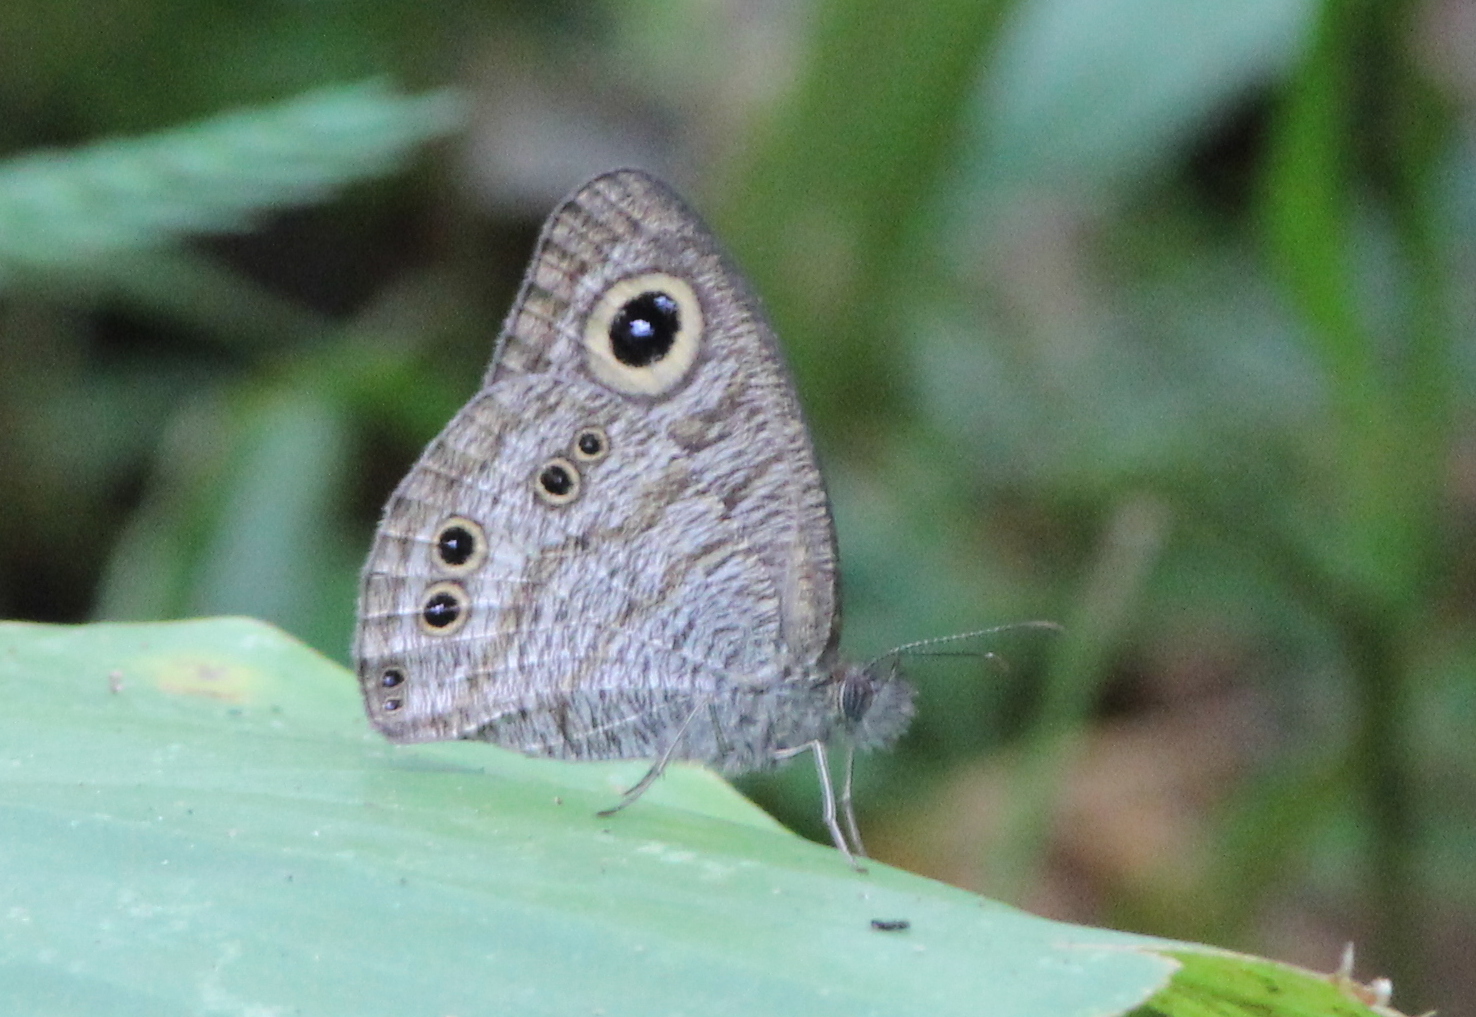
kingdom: Animalia
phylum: Arthropoda
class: Insecta
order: Lepidoptera
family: Nymphalidae
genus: Ypthima
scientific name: Ypthima baldus
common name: Common five-ring
